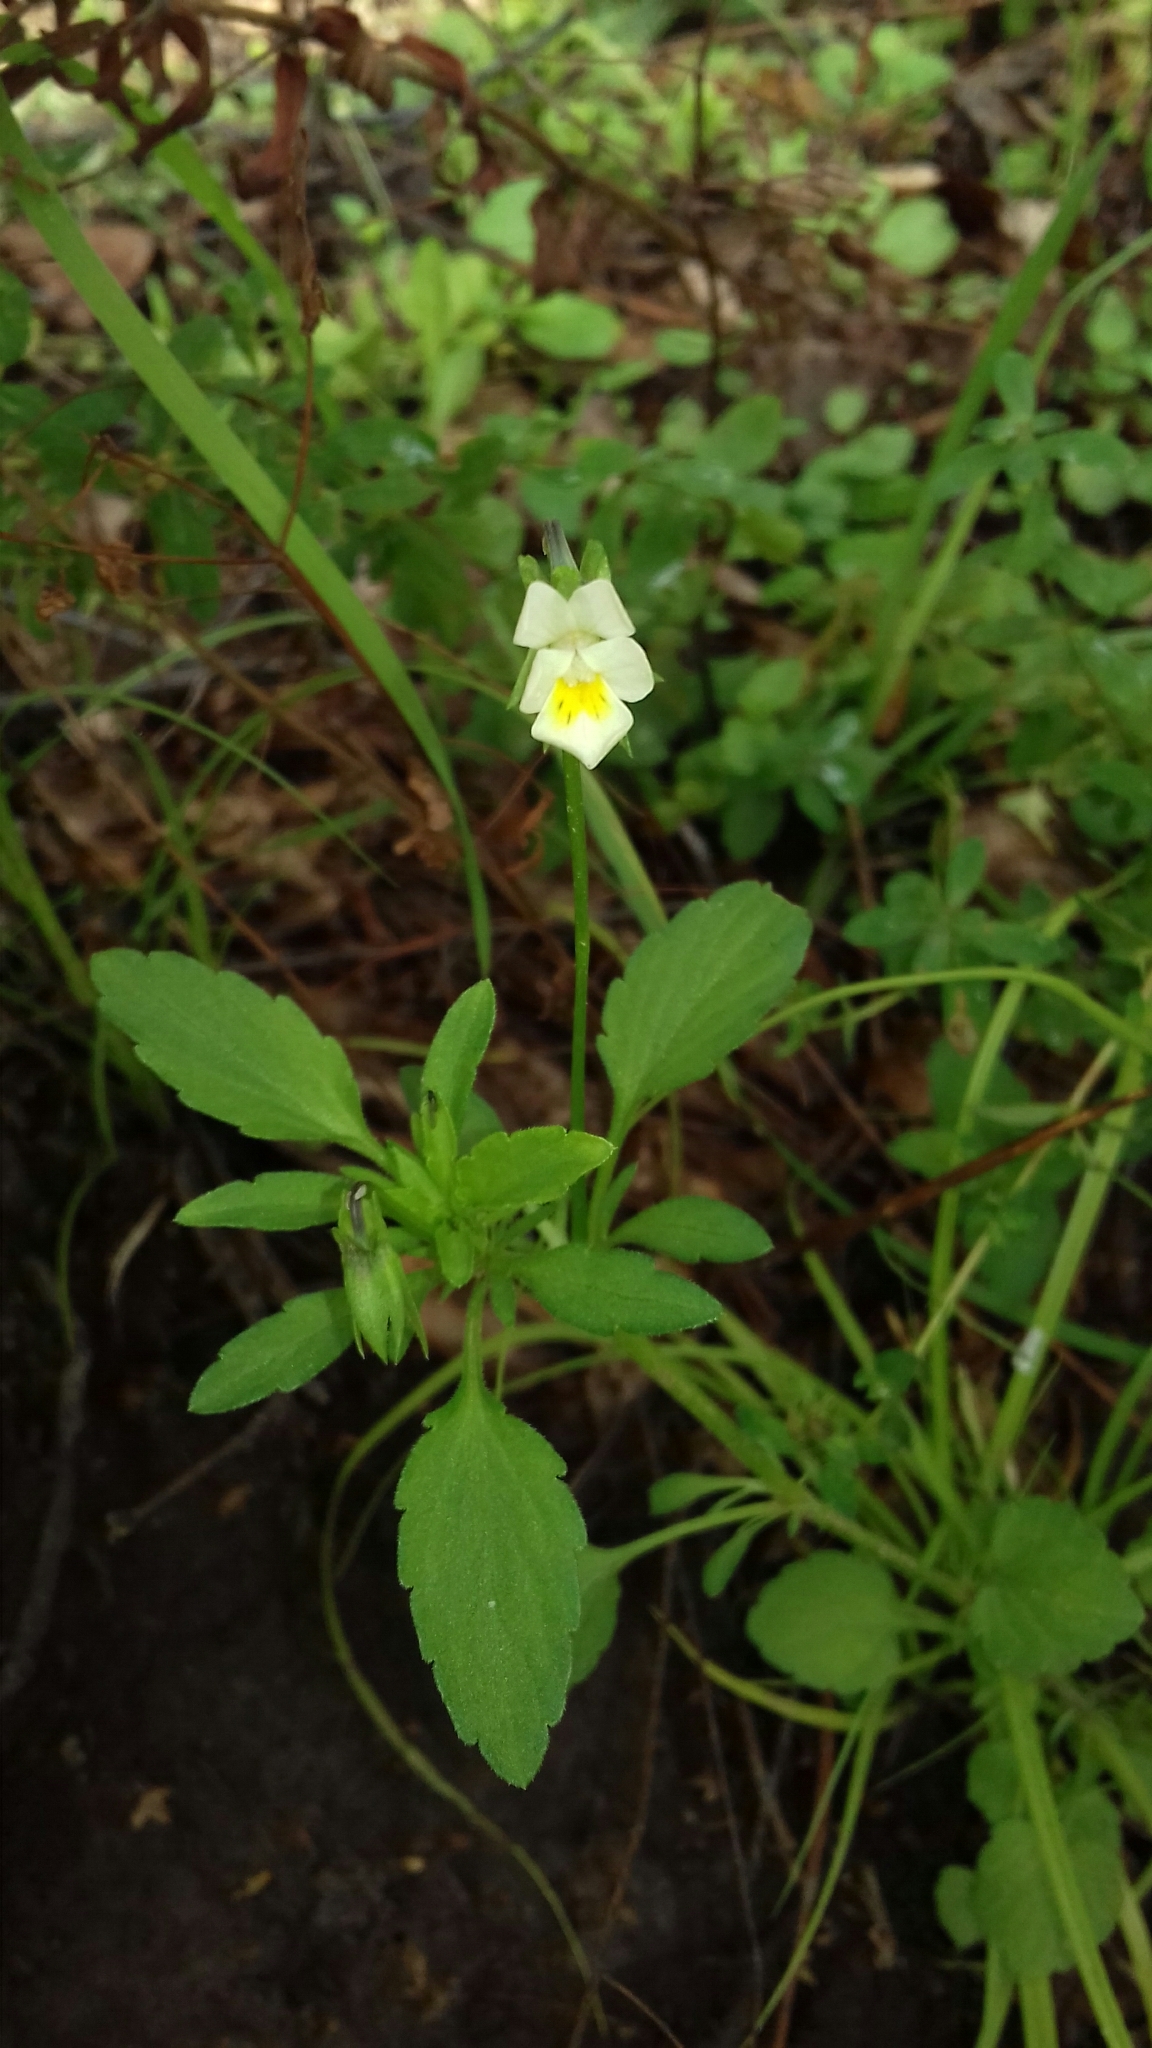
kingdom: Plantae
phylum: Tracheophyta
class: Magnoliopsida
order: Malpighiales
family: Violaceae
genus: Viola
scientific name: Viola arvensis
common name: Field pansy
